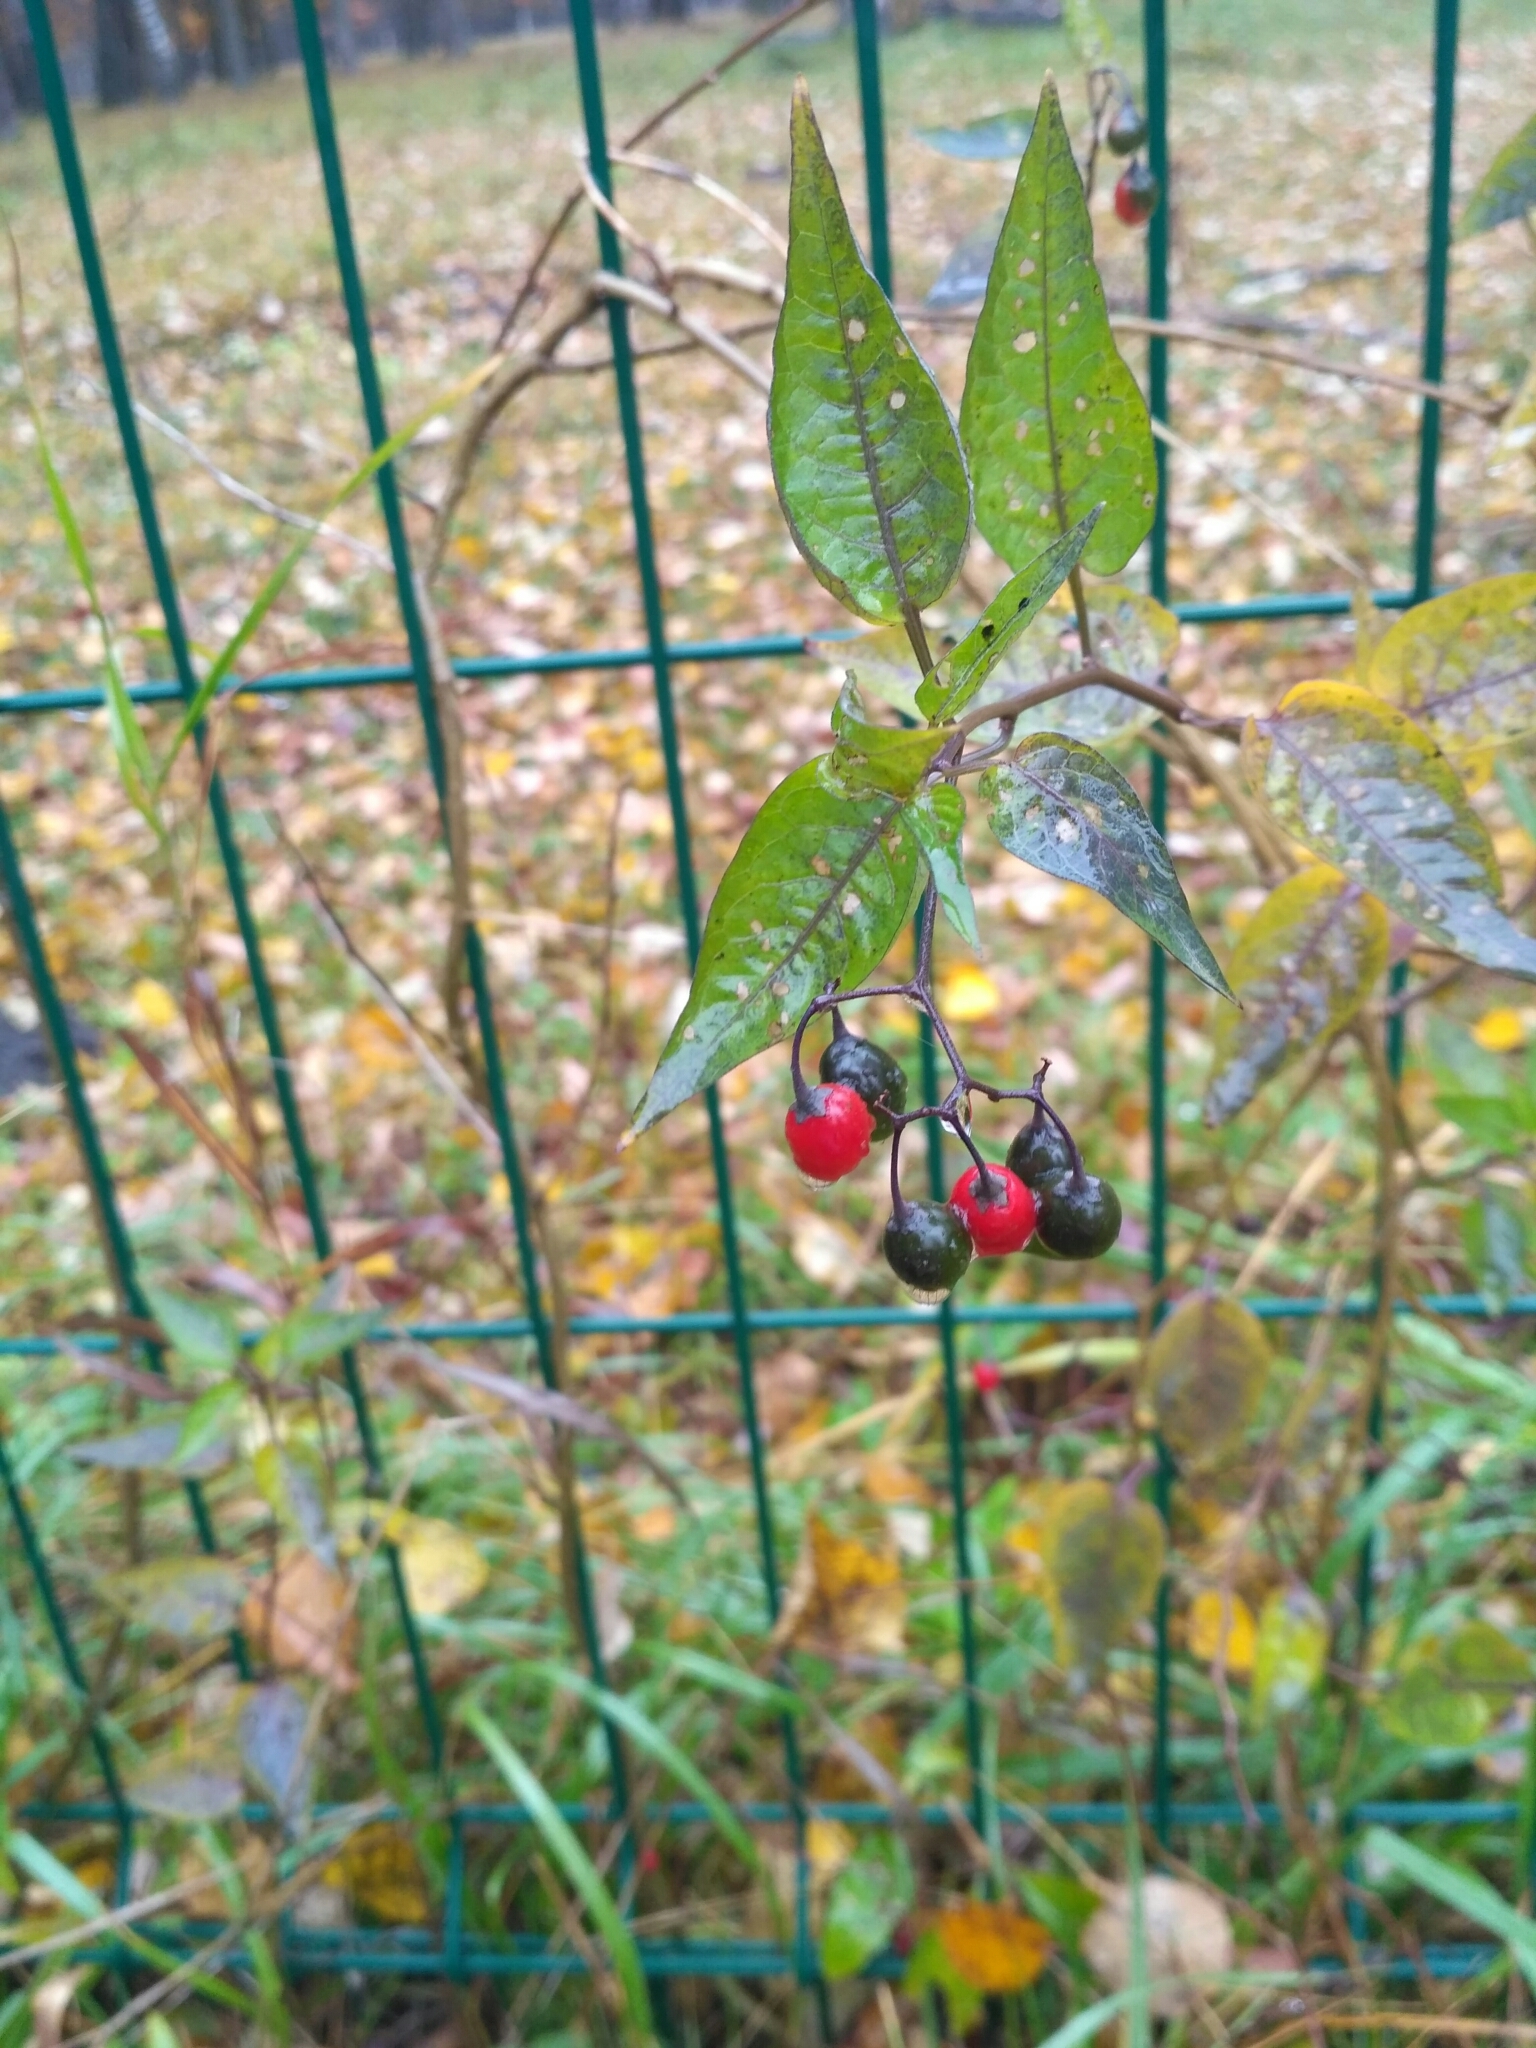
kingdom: Plantae
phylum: Tracheophyta
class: Magnoliopsida
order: Solanales
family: Solanaceae
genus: Solanum
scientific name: Solanum dulcamara
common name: Climbing nightshade
